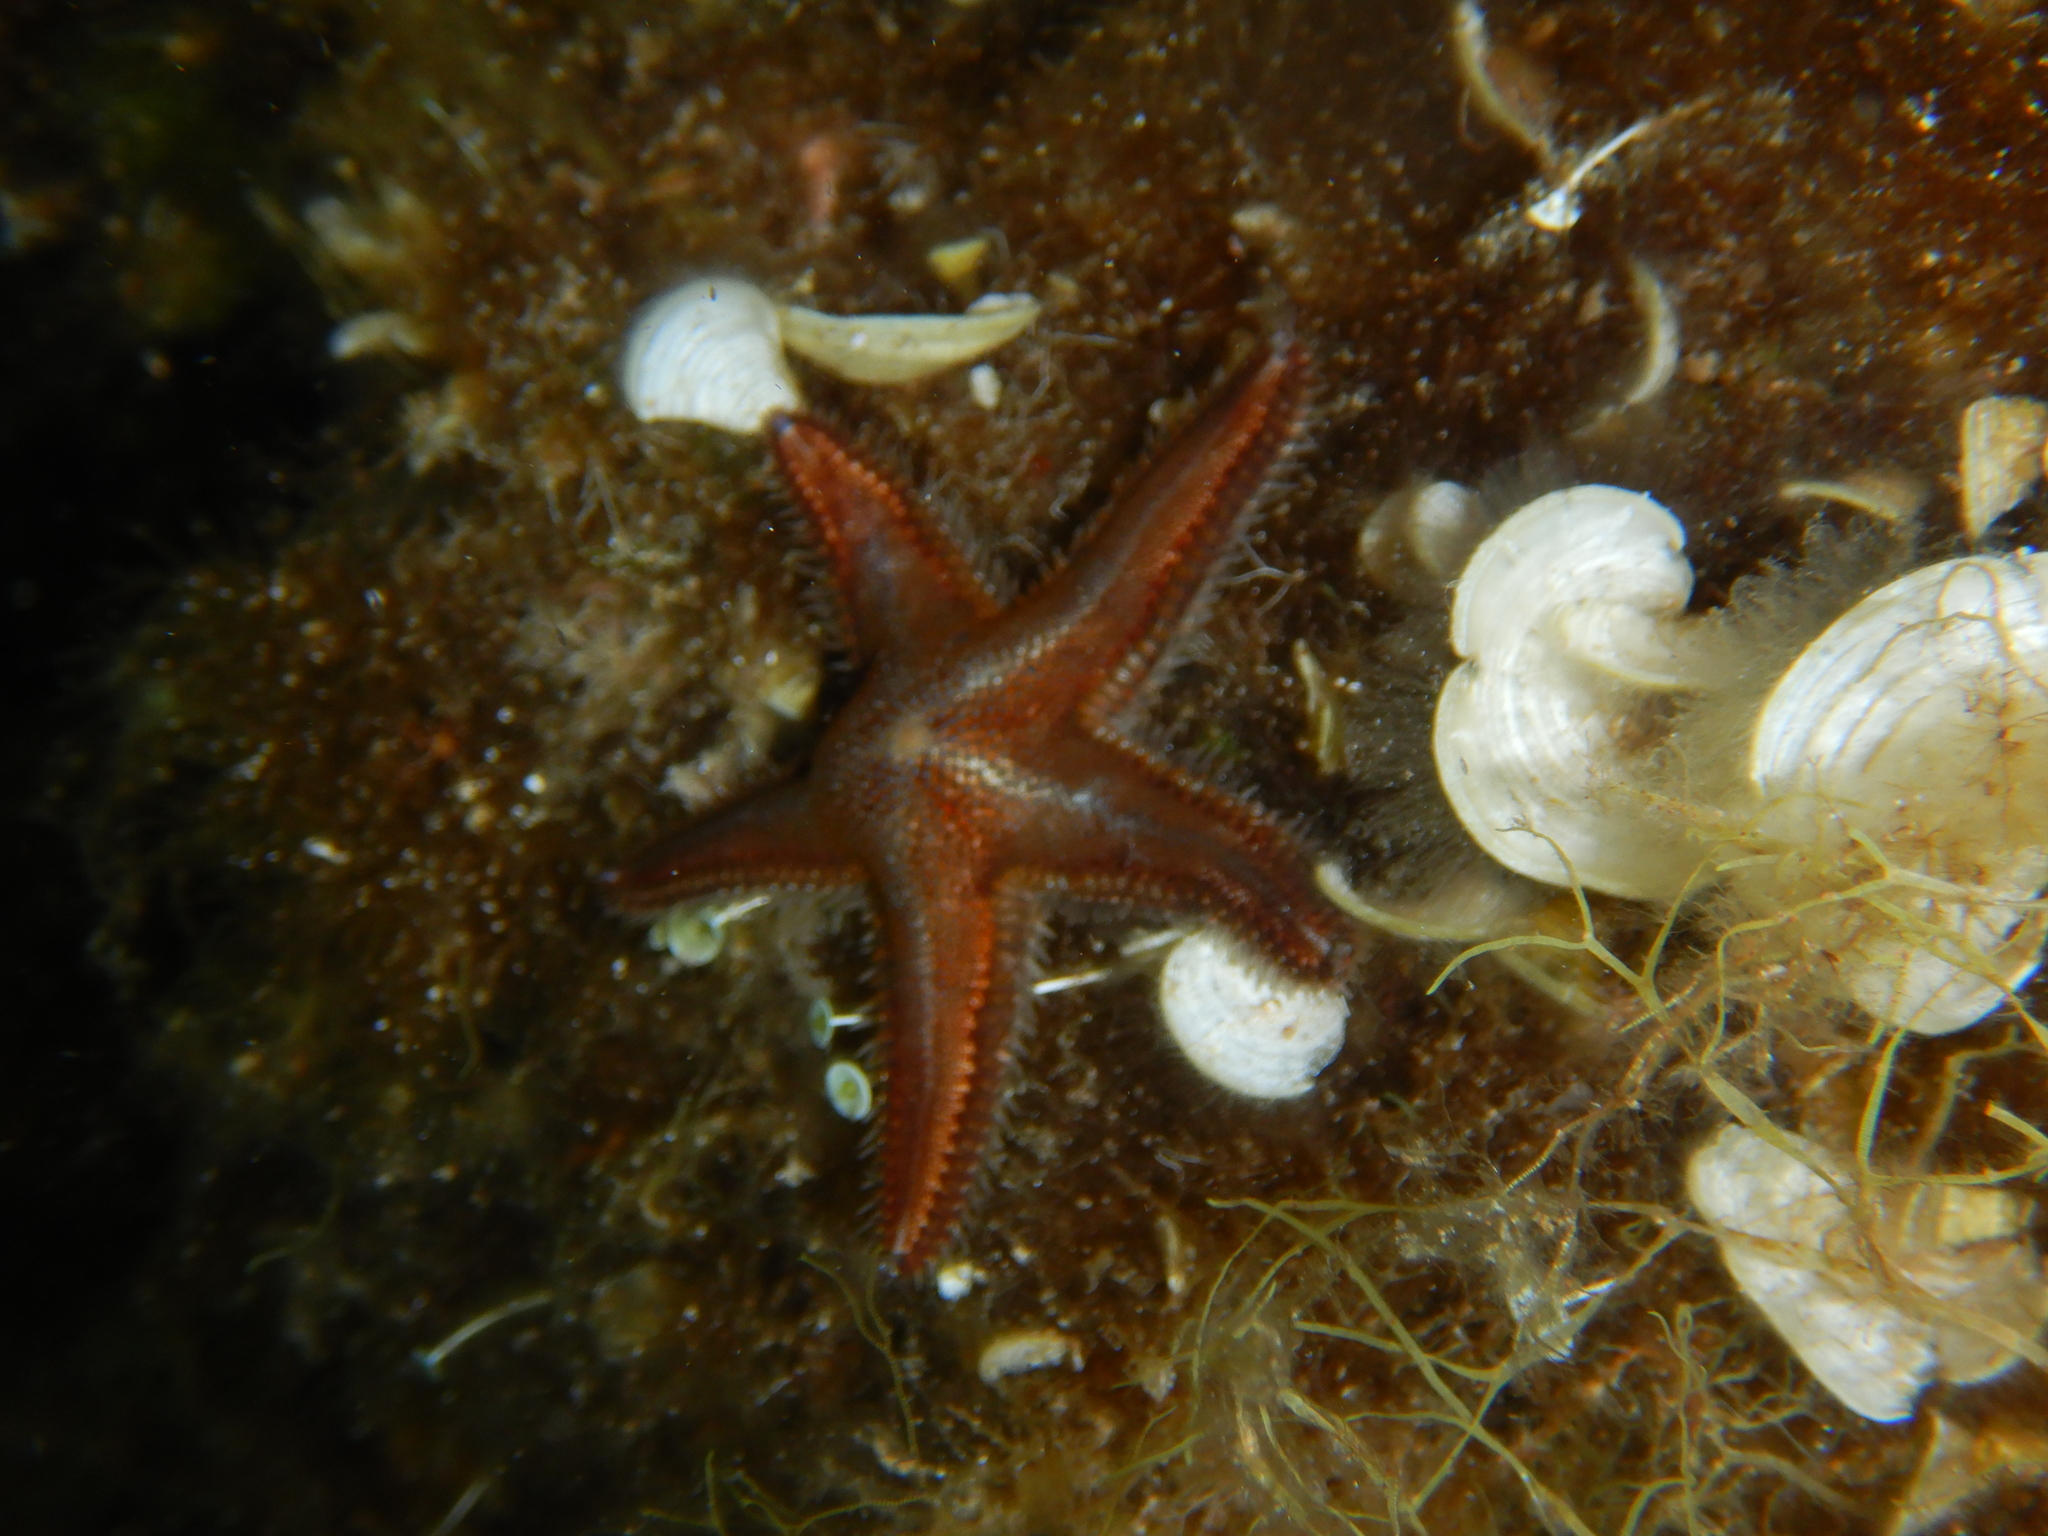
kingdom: Animalia
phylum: Echinodermata
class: Asteroidea
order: Paxillosida
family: Astropectinidae
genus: Astropecten
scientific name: Astropecten spinulosus
